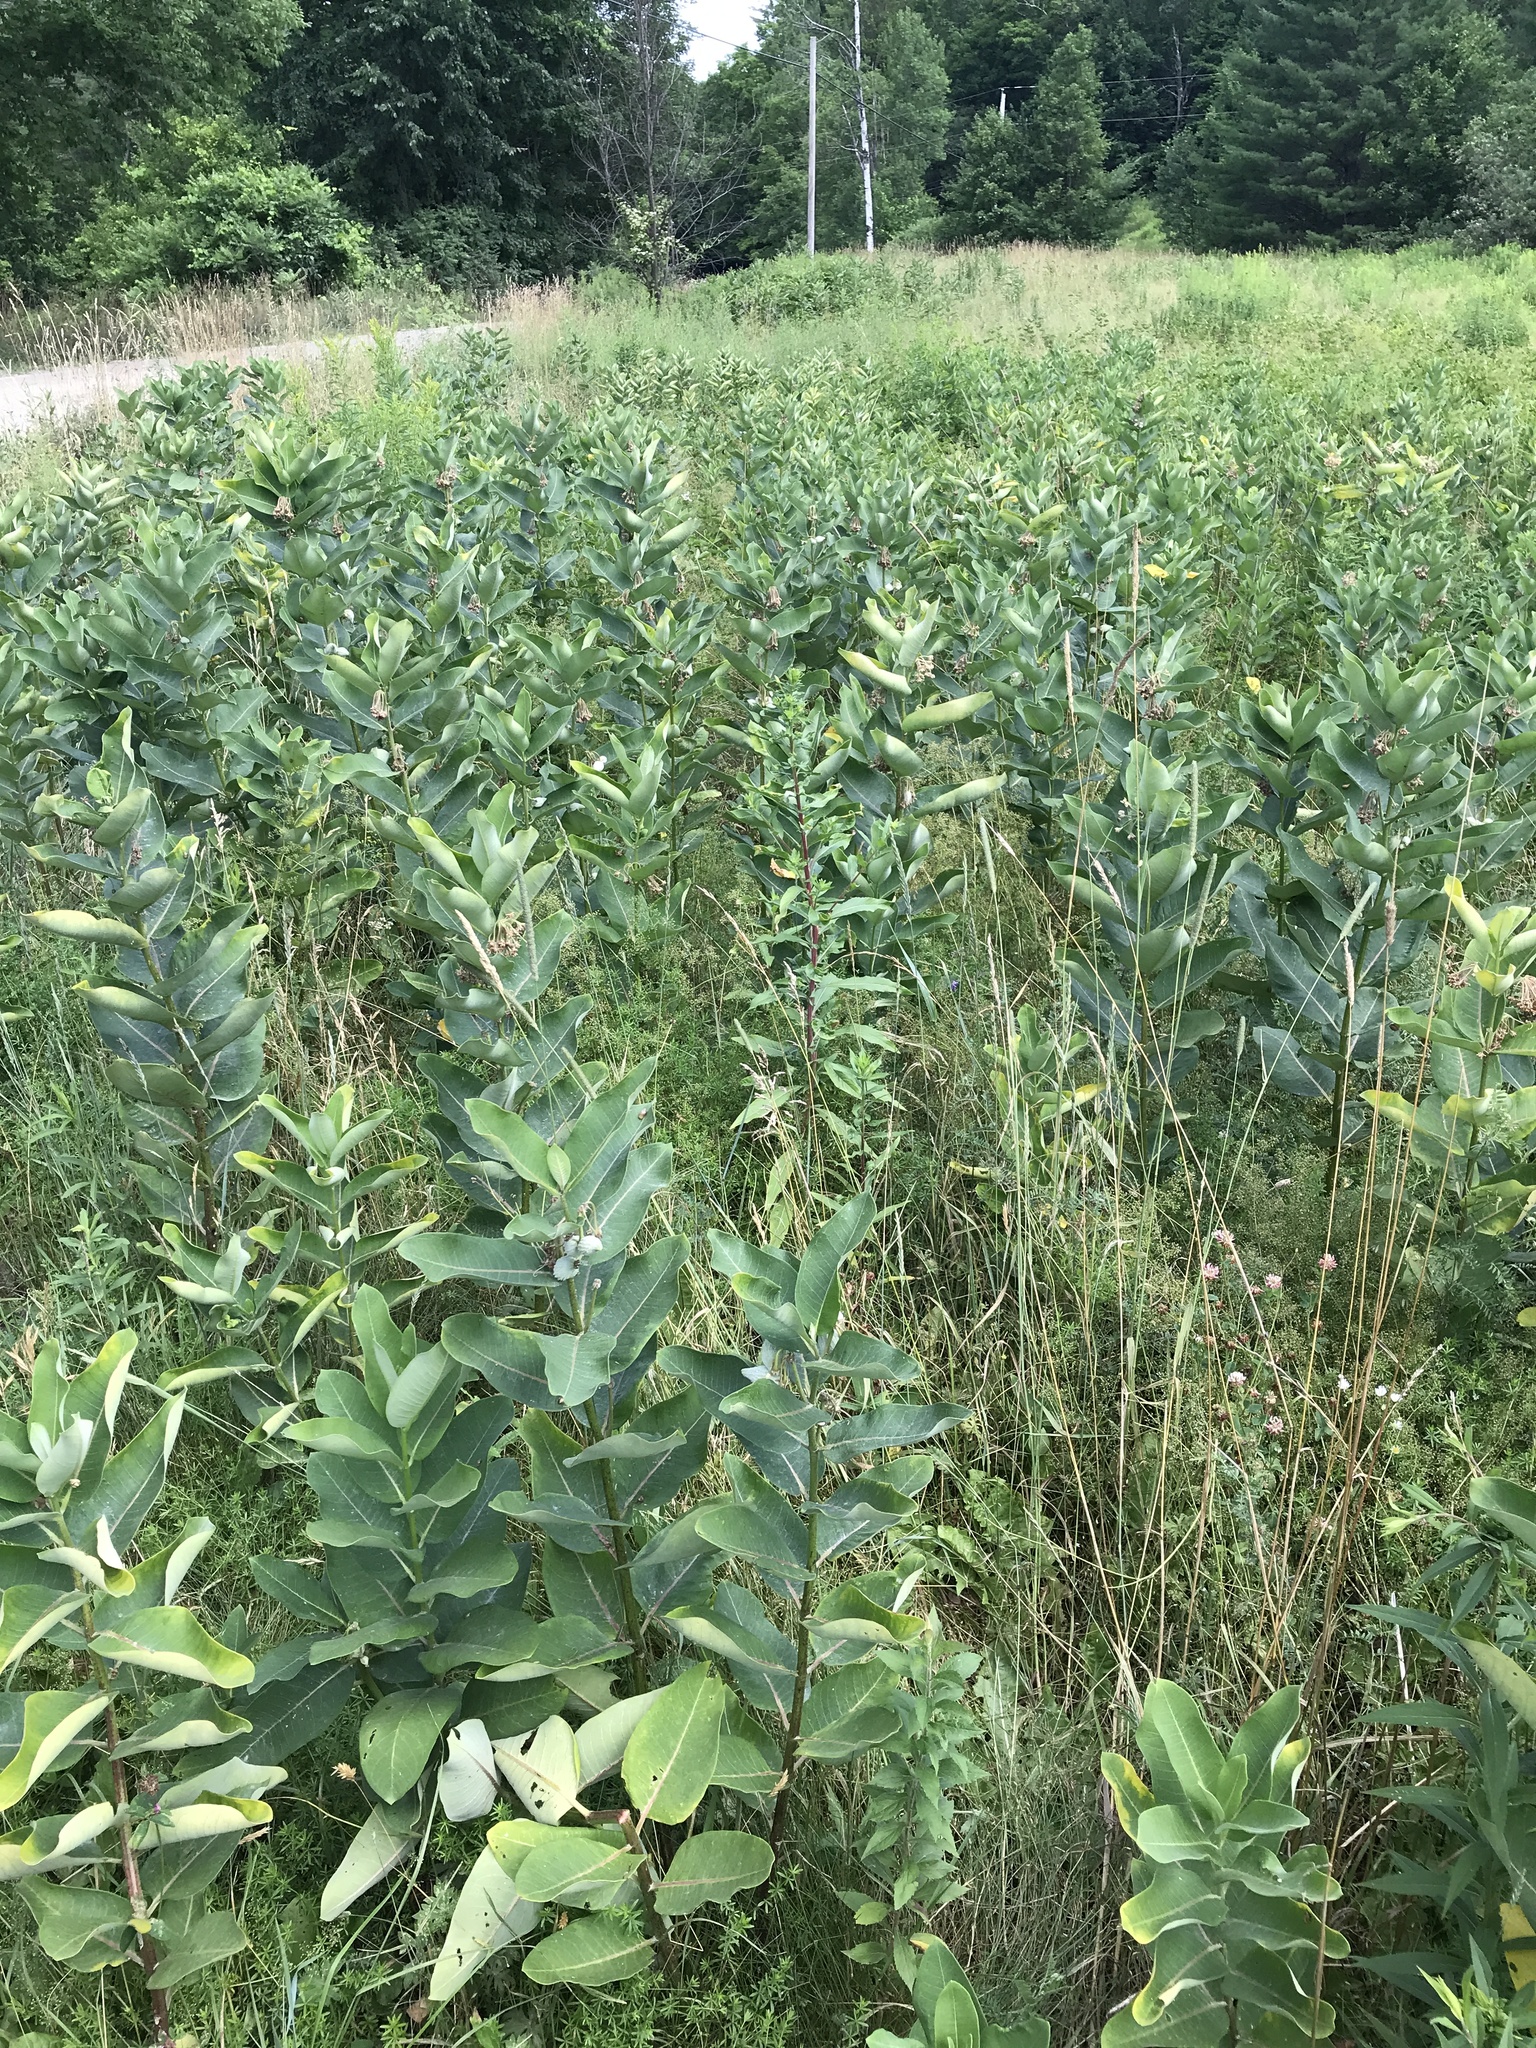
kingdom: Plantae
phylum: Tracheophyta
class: Magnoliopsida
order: Gentianales
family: Apocynaceae
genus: Asclepias
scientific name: Asclepias syriaca
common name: Common milkweed
